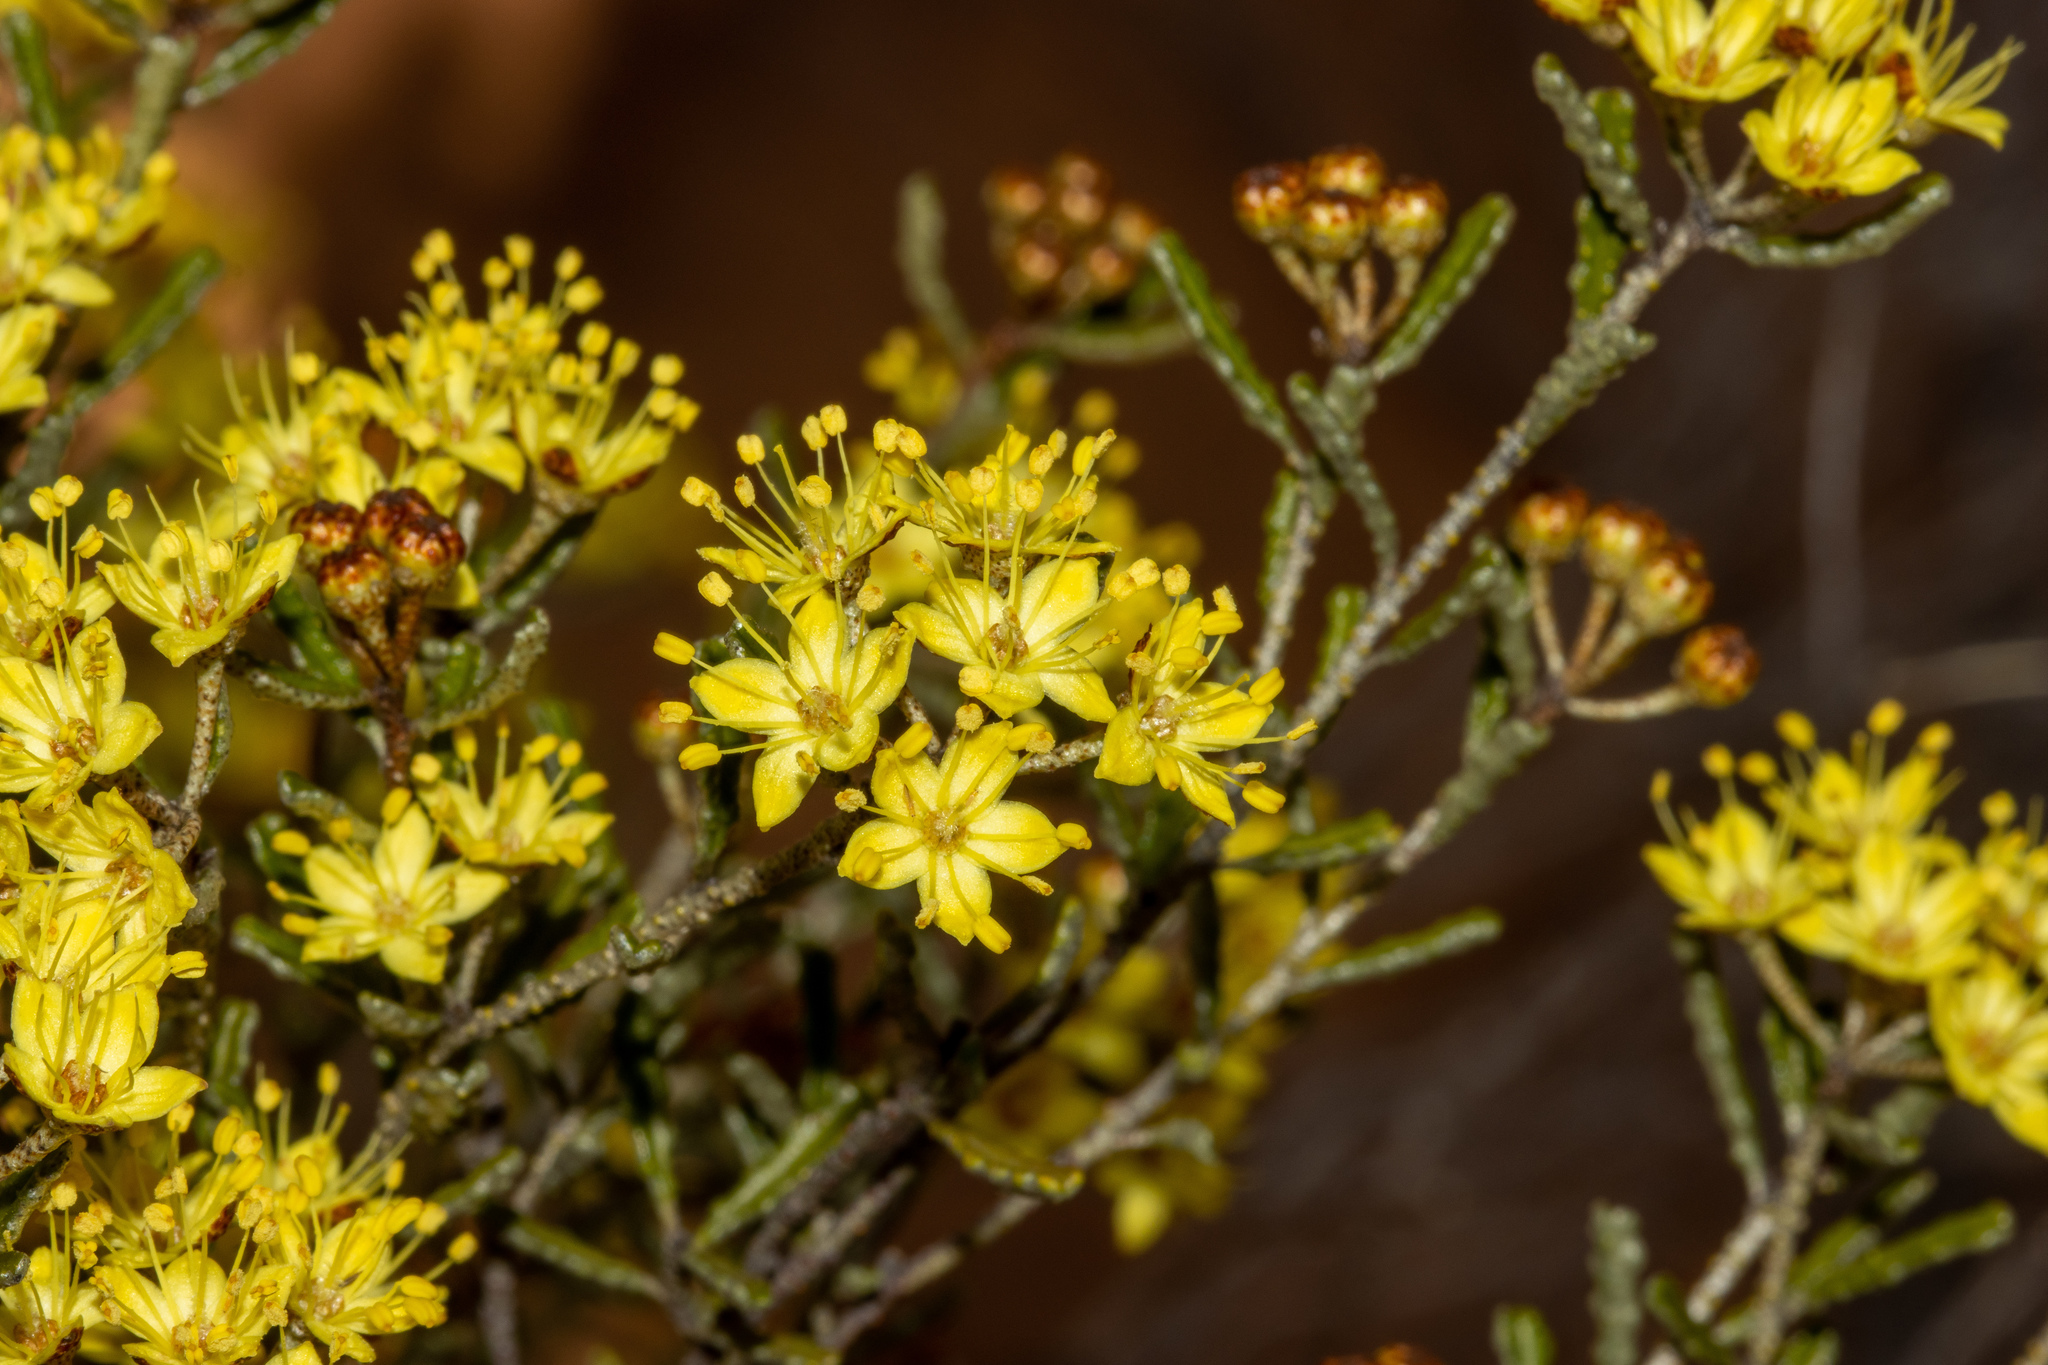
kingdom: Plantae
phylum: Tracheophyta
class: Magnoliopsida
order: Sapindales
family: Rutaceae
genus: Phebalium
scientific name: Phebalium bullatum
